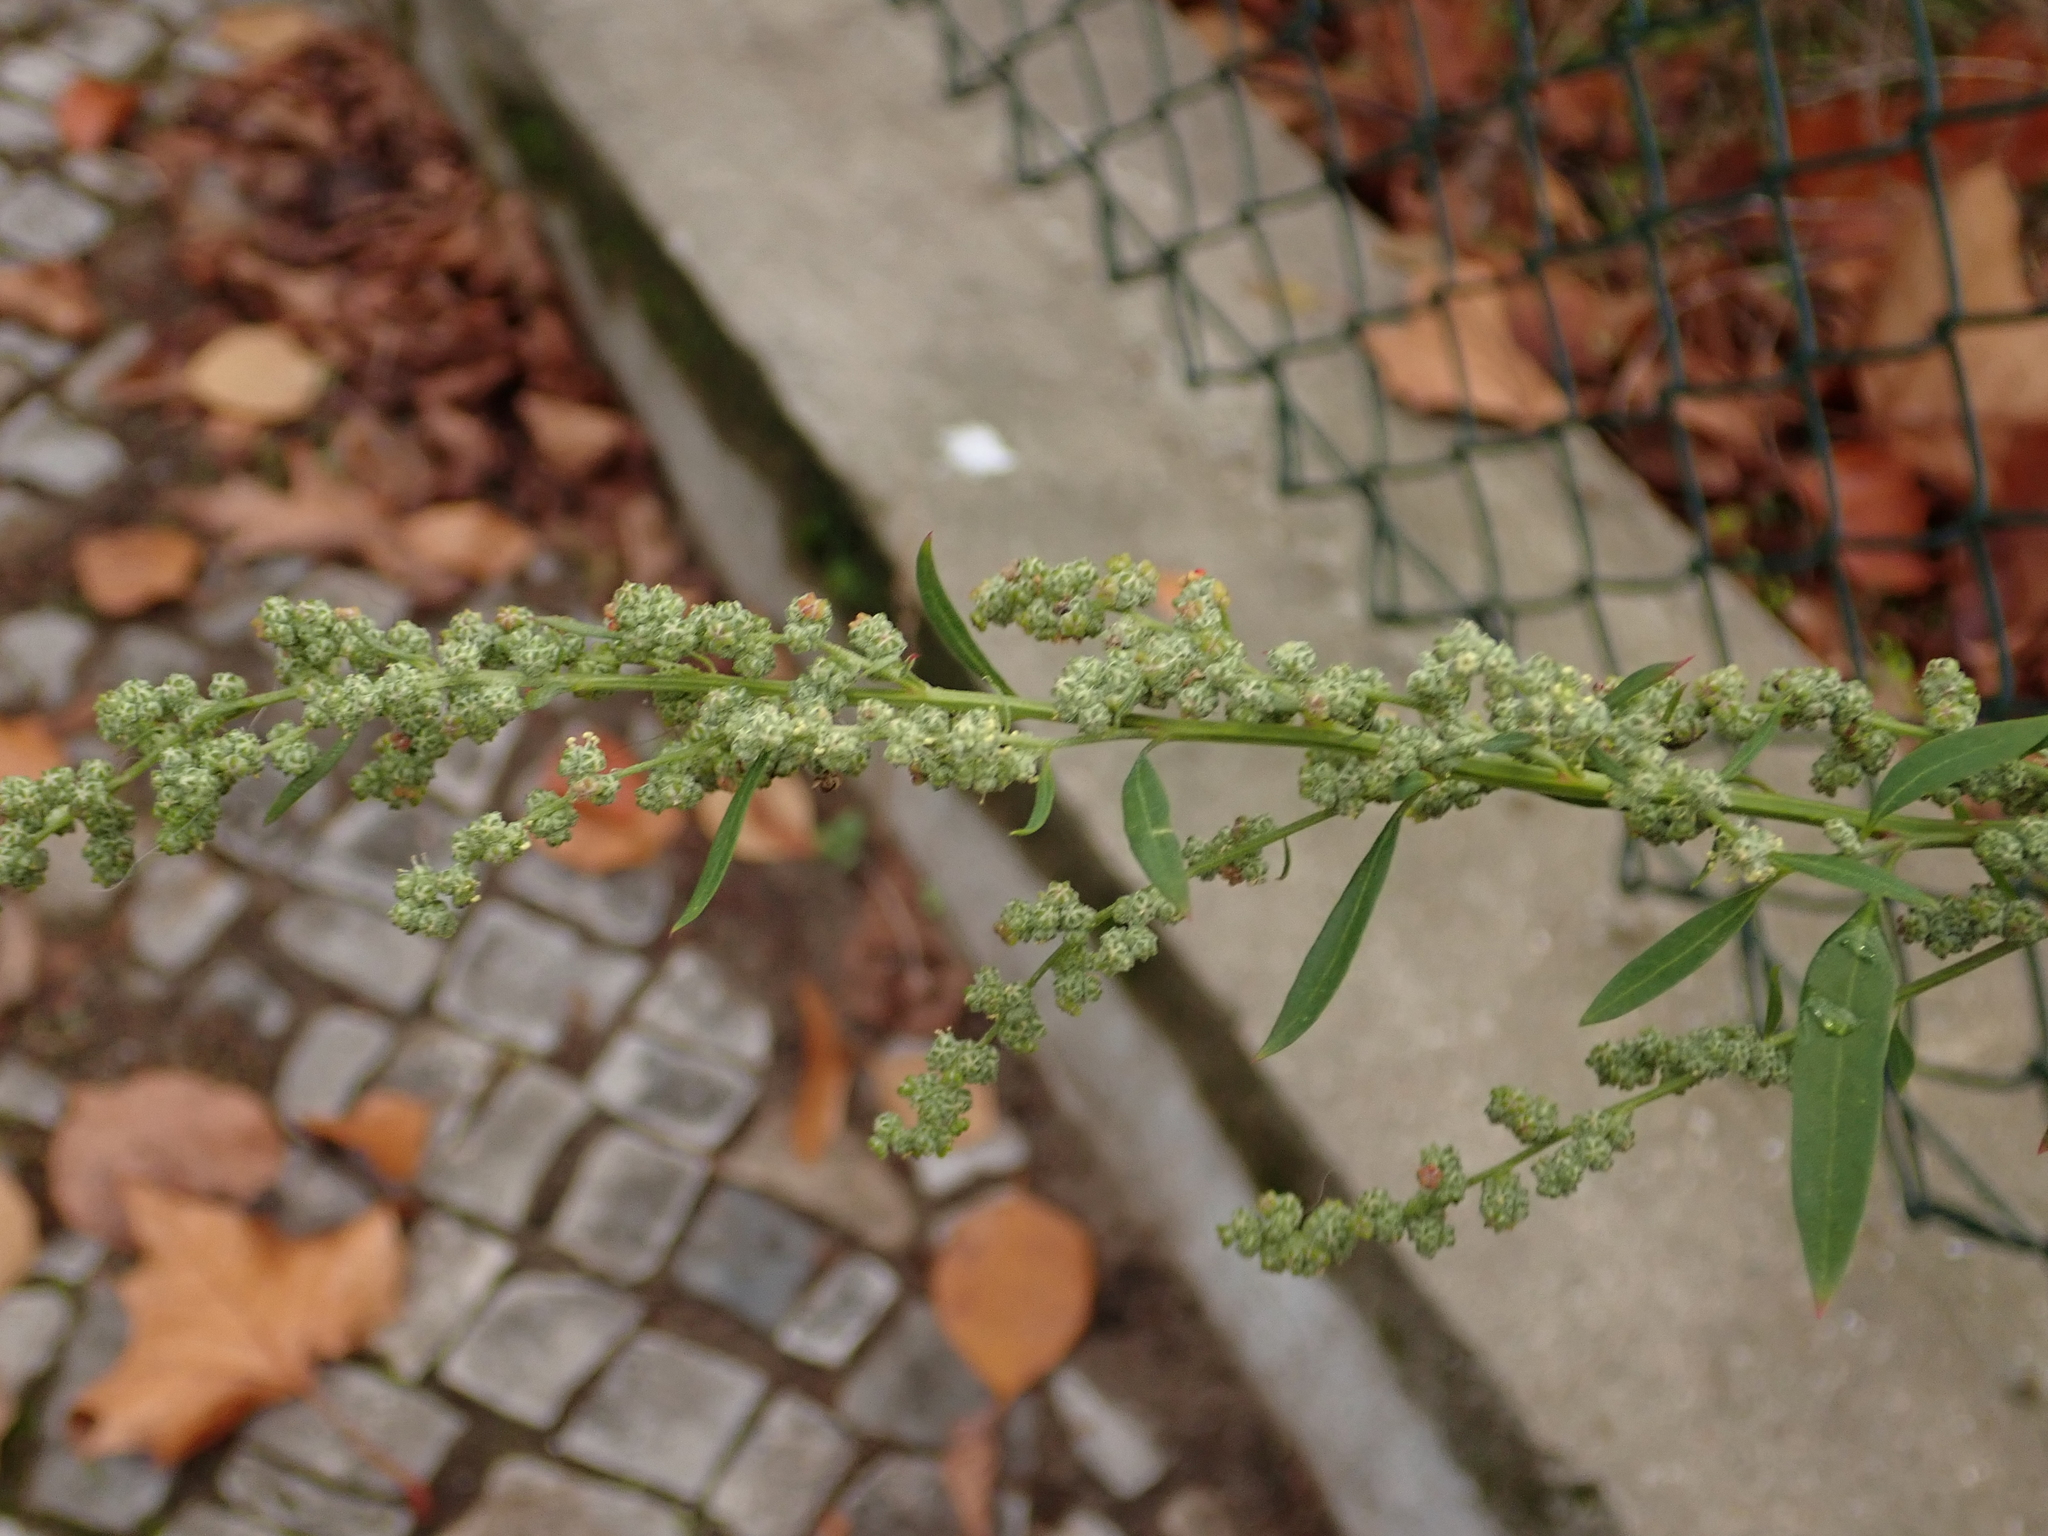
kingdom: Plantae
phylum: Tracheophyta
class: Magnoliopsida
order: Caryophyllales
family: Amaranthaceae
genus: Chenopodium
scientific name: Chenopodium album
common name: Fat-hen
